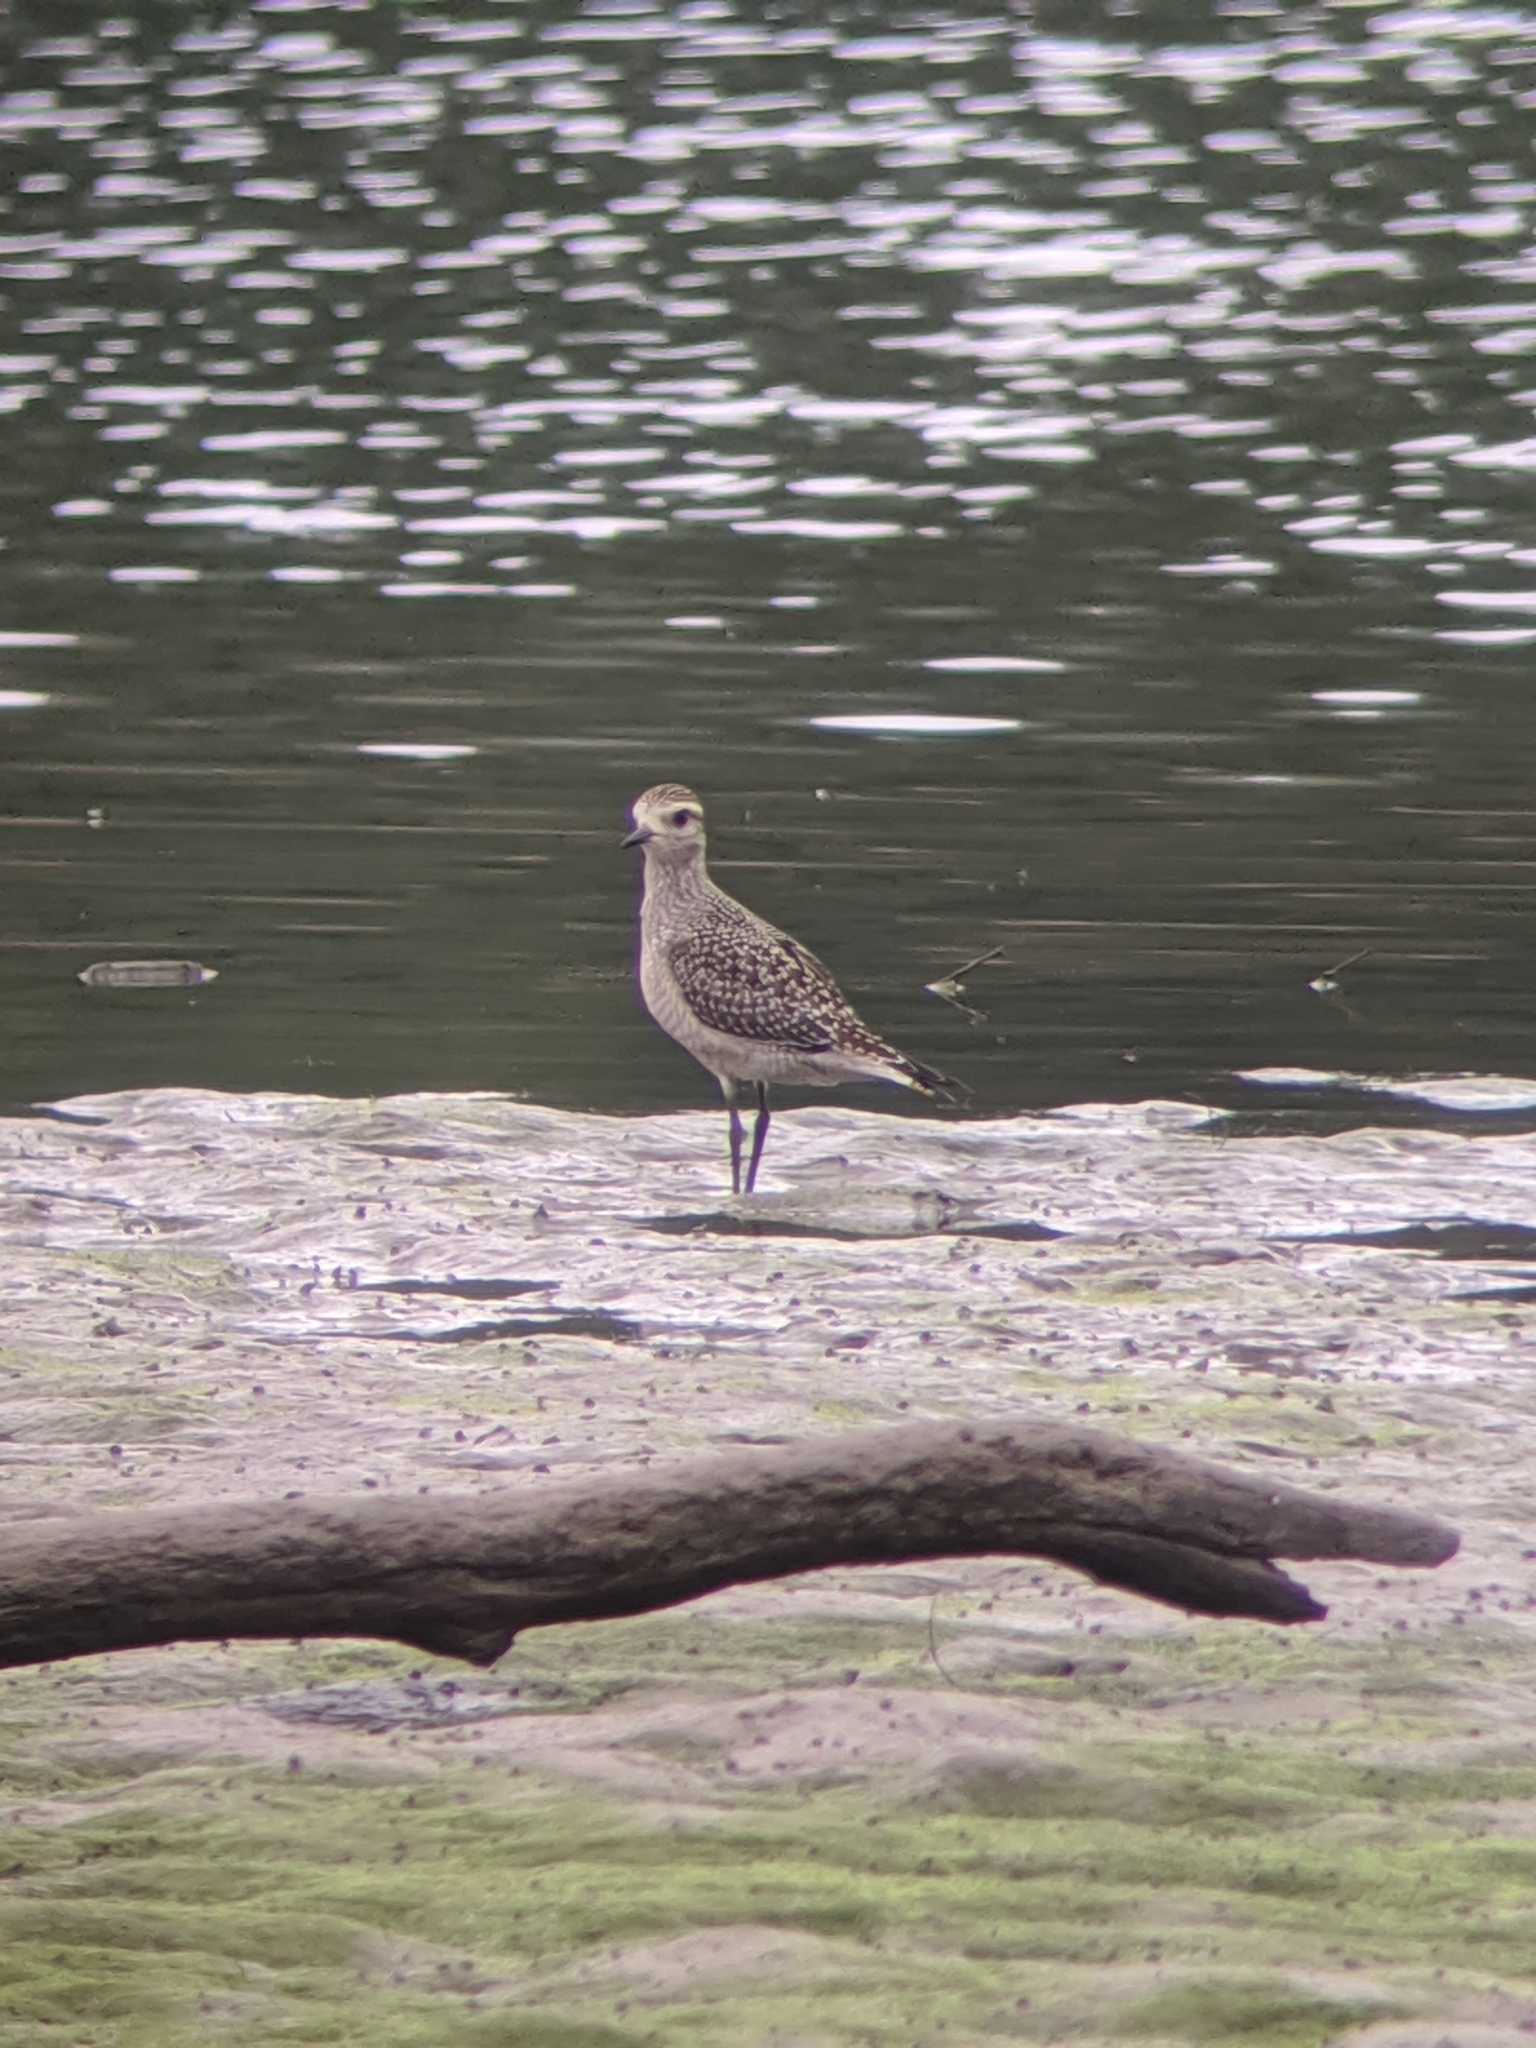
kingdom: Animalia
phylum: Chordata
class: Aves
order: Charadriiformes
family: Charadriidae
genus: Pluvialis
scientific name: Pluvialis dominica
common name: American golden plover
